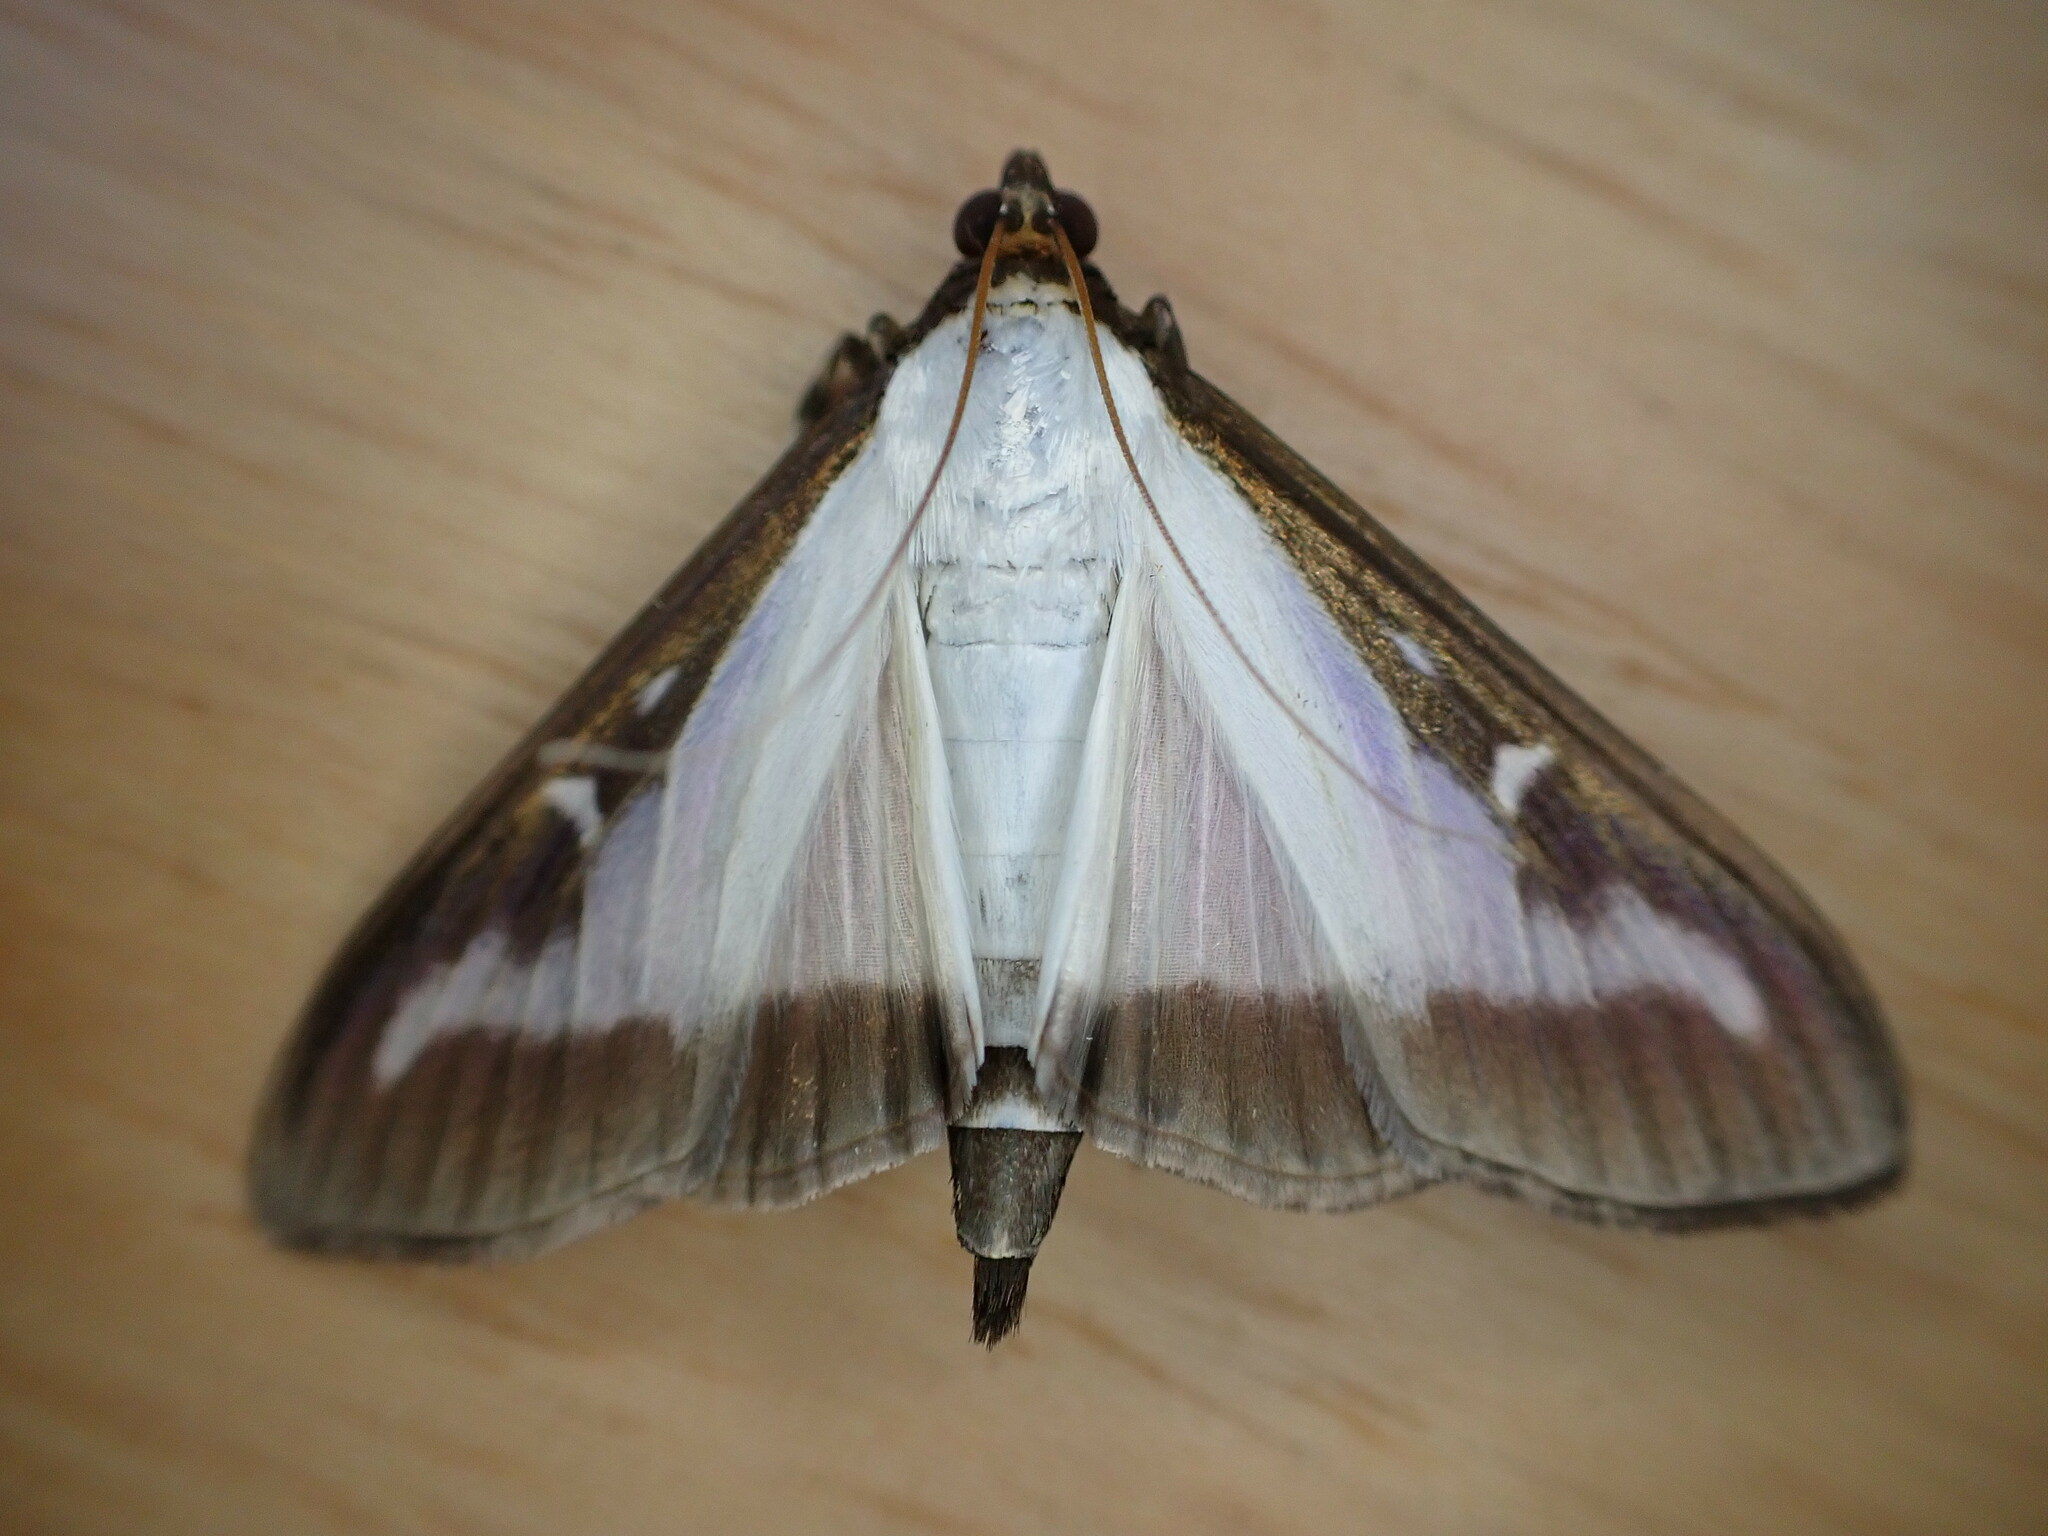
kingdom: Animalia
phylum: Arthropoda
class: Insecta
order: Lepidoptera
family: Crambidae
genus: Cydalima
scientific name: Cydalima perspectalis
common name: Box tree moth
